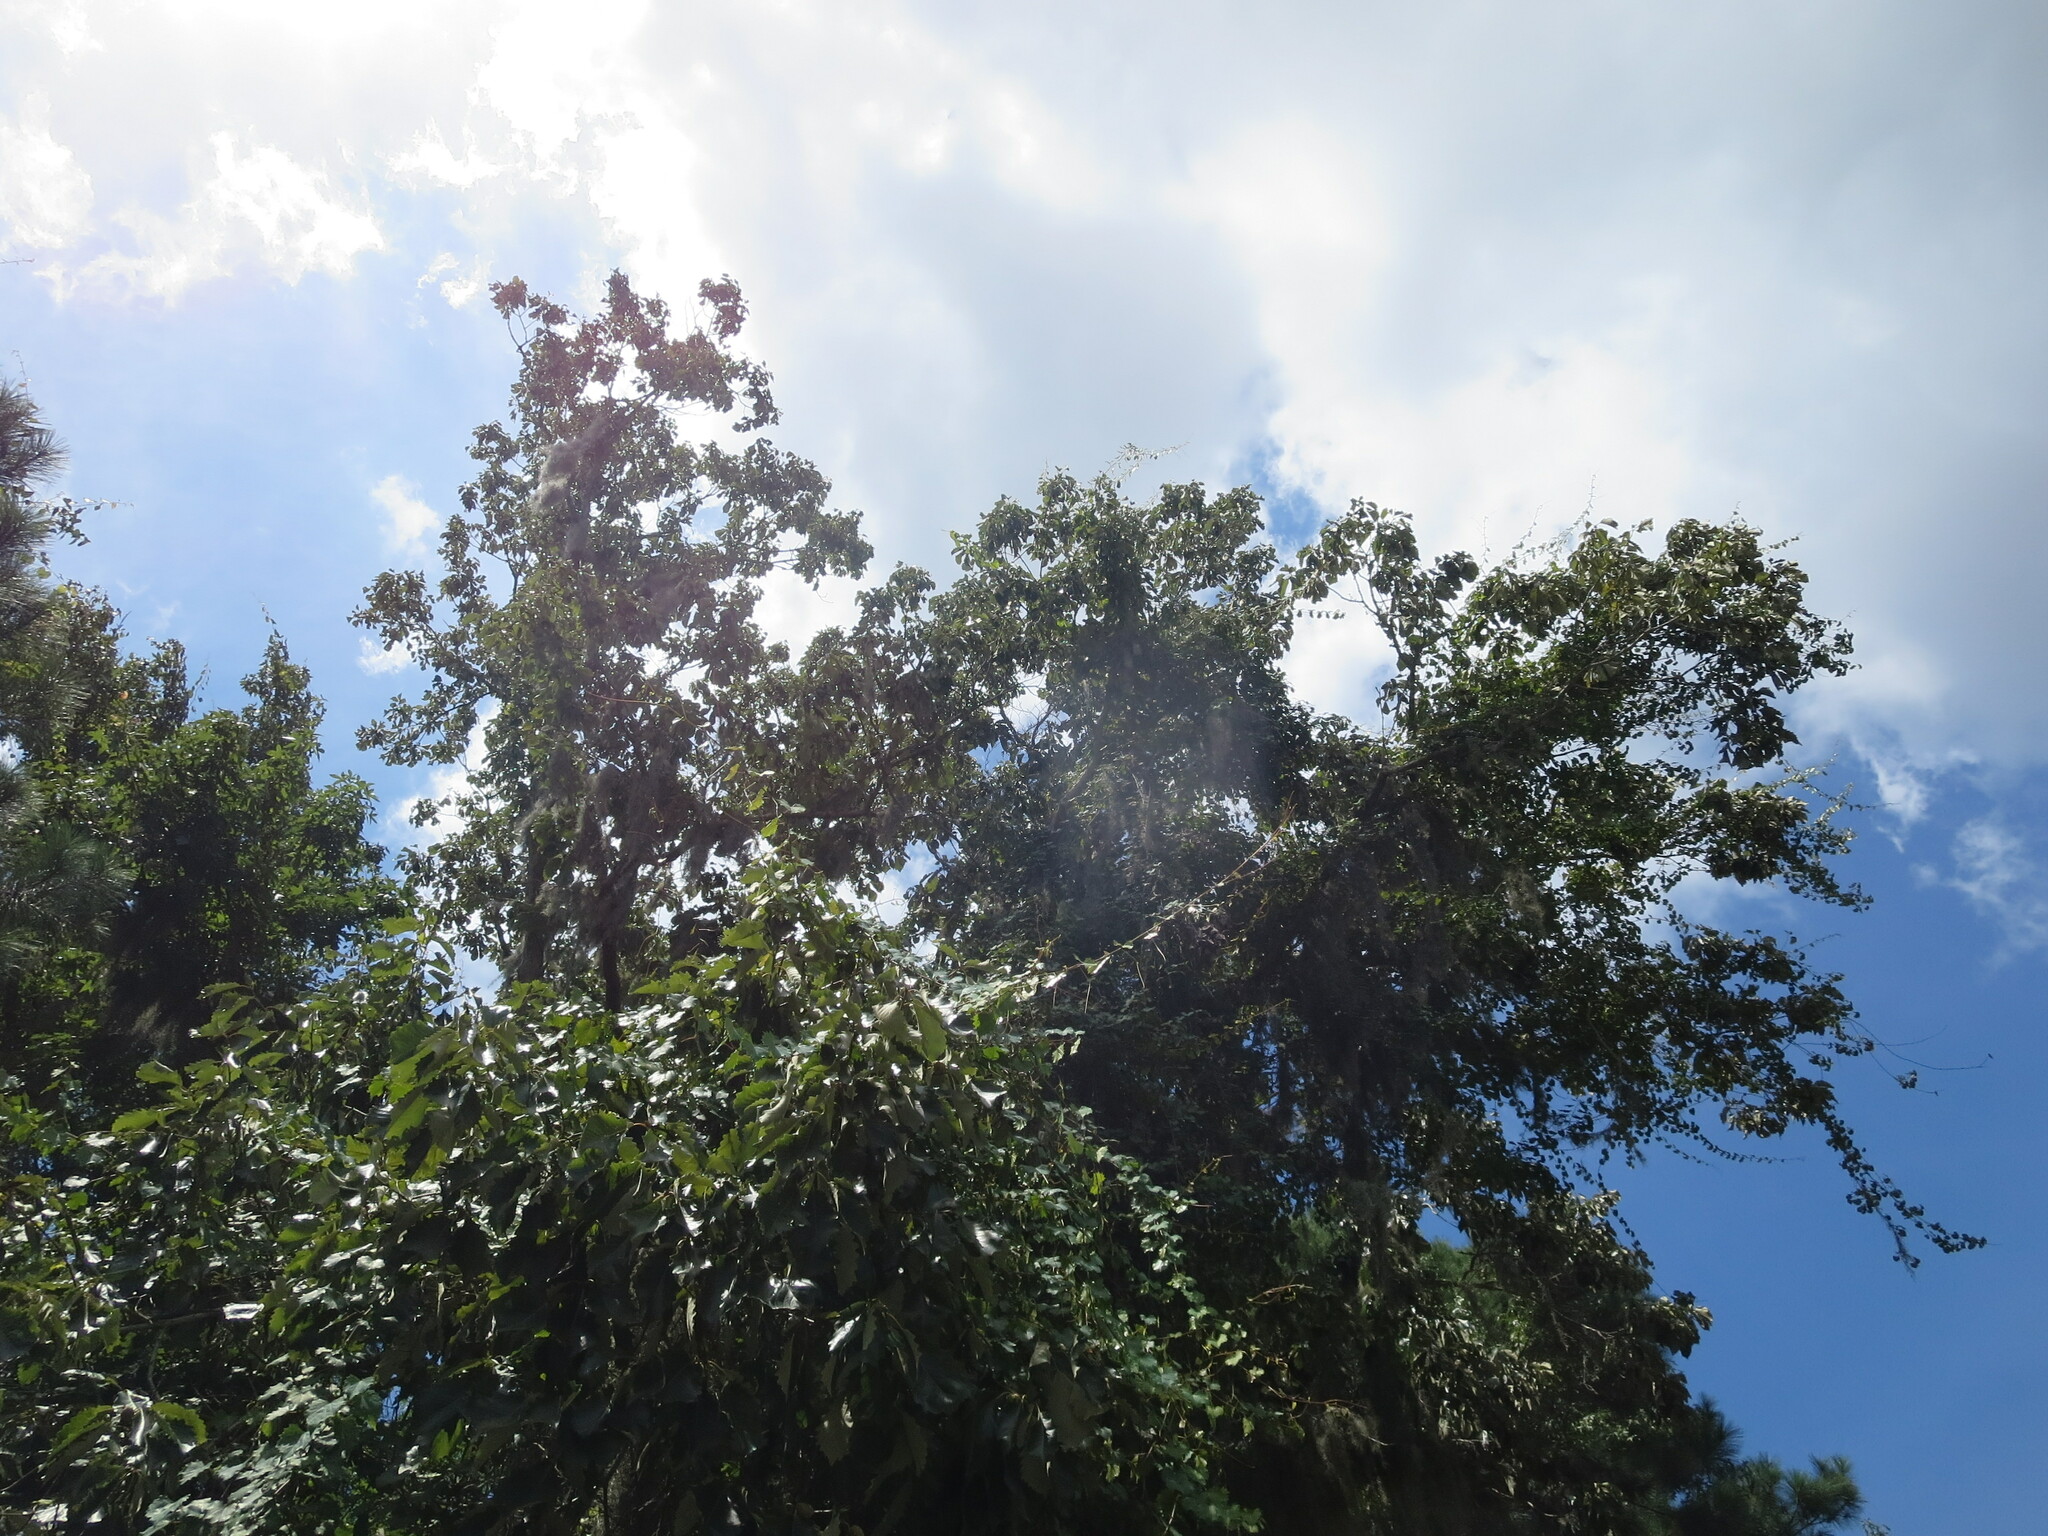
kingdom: Plantae
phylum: Tracheophyta
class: Magnoliopsida
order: Fagales
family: Fagaceae
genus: Quercus
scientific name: Quercus michauxii
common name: Swamp chestnut oak
